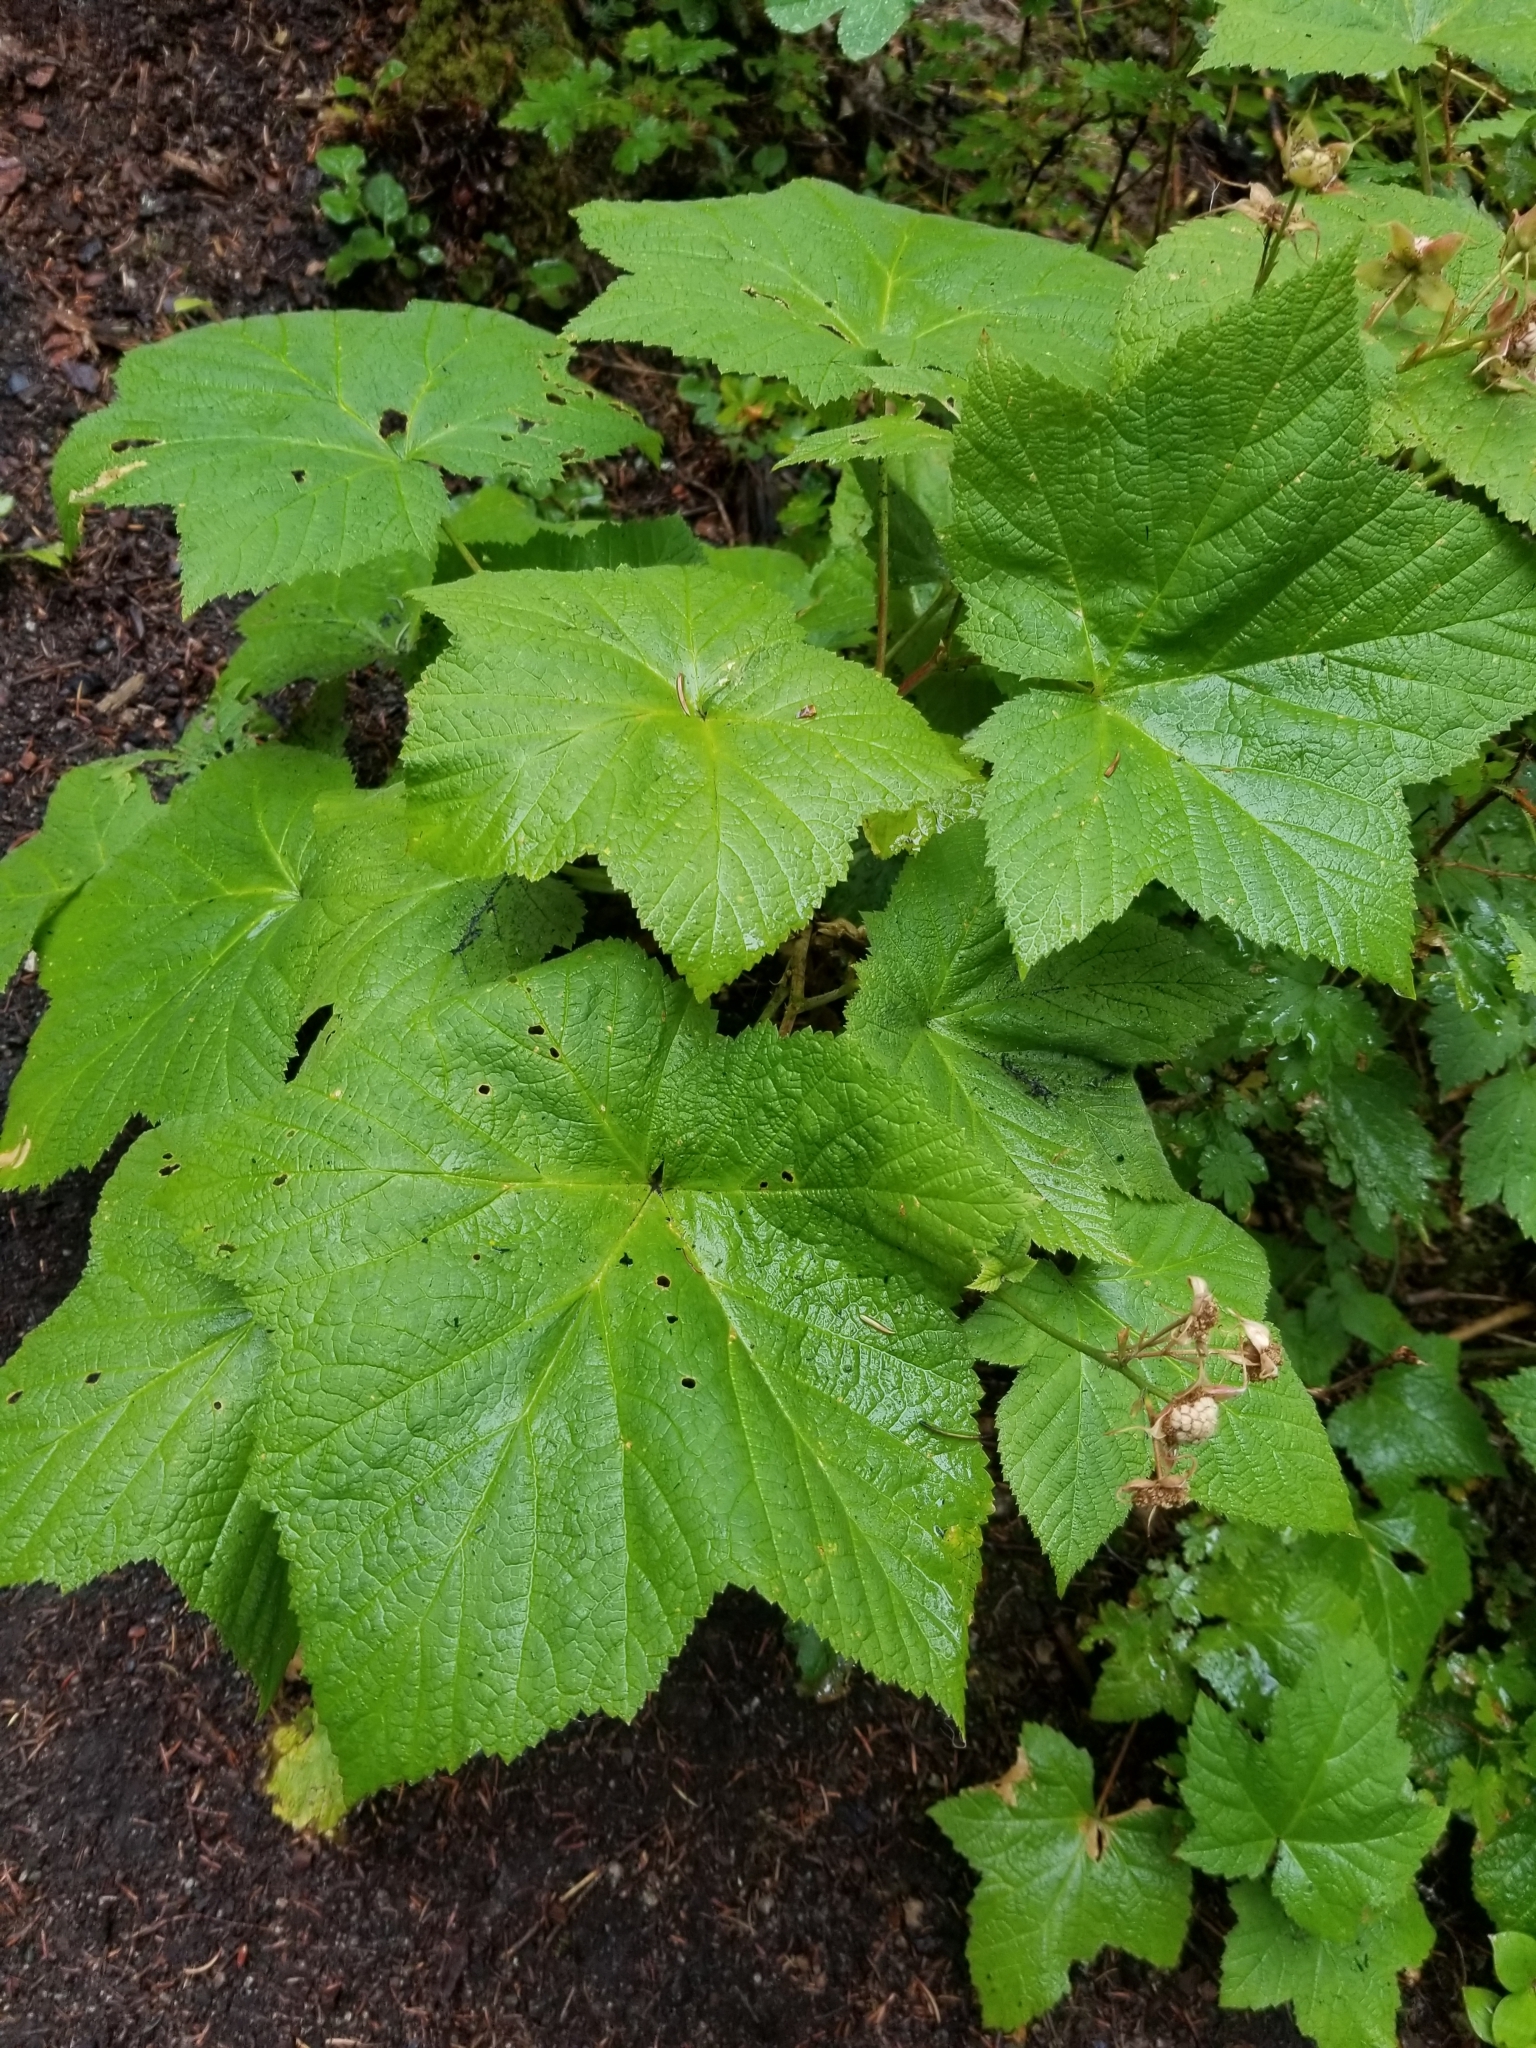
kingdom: Plantae
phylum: Tracheophyta
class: Magnoliopsida
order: Rosales
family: Rosaceae
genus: Rubus
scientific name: Rubus parviflorus
